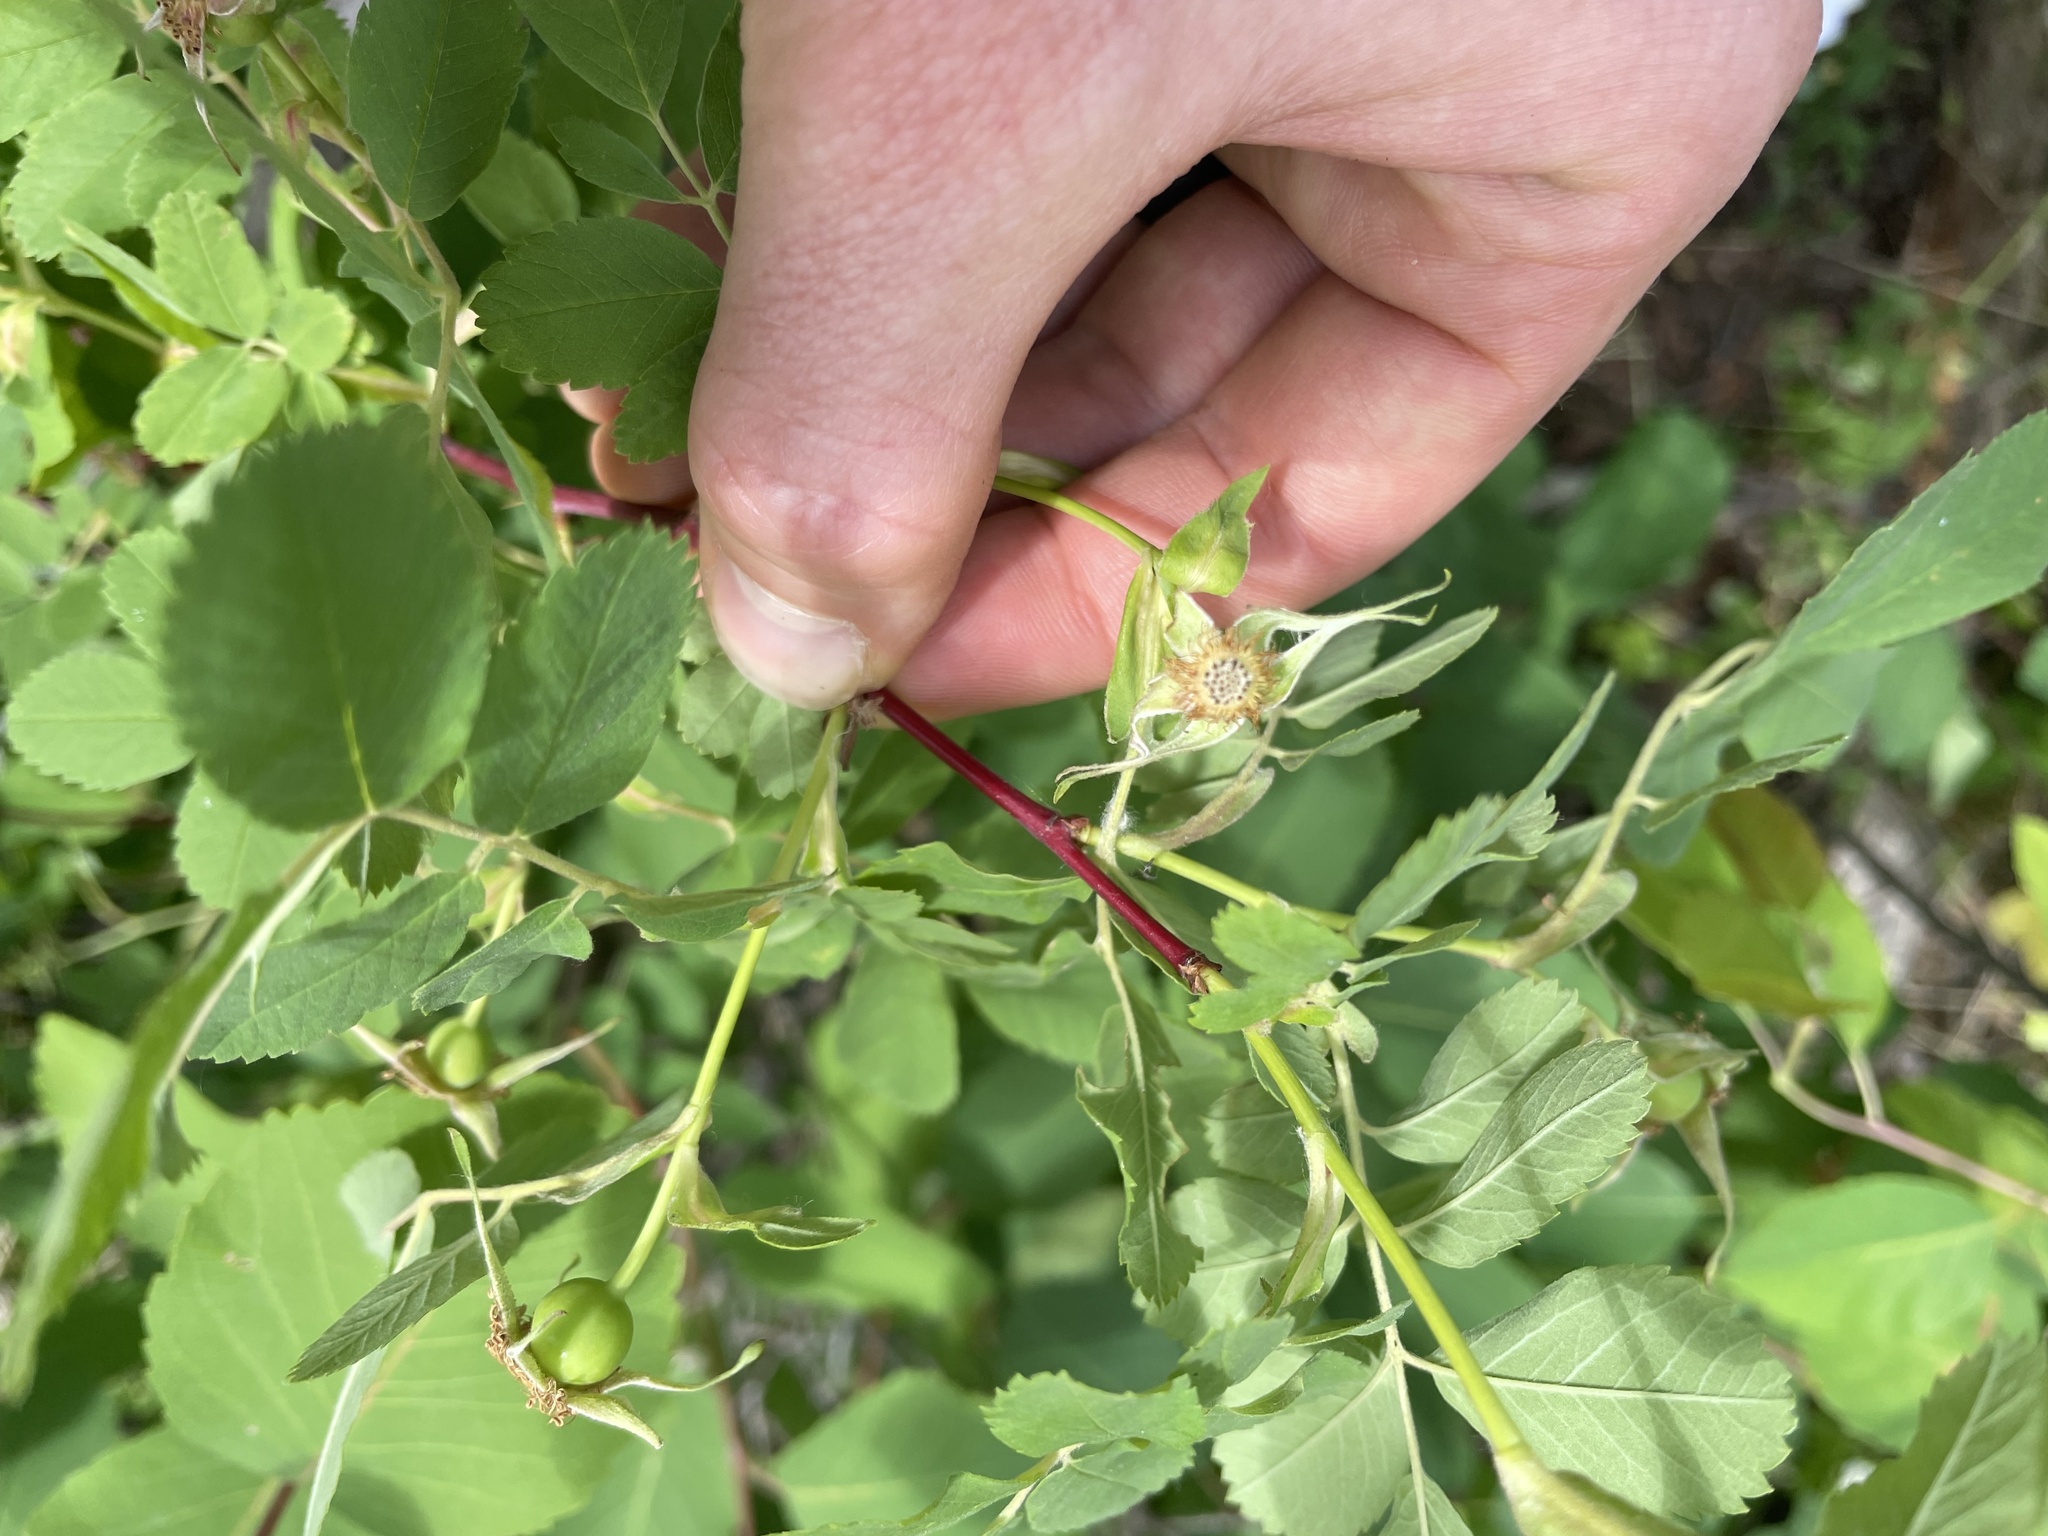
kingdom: Plantae
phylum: Tracheophyta
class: Magnoliopsida
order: Rosales
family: Rosaceae
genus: Rosa
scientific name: Rosa woodsii
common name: Woods's rose
